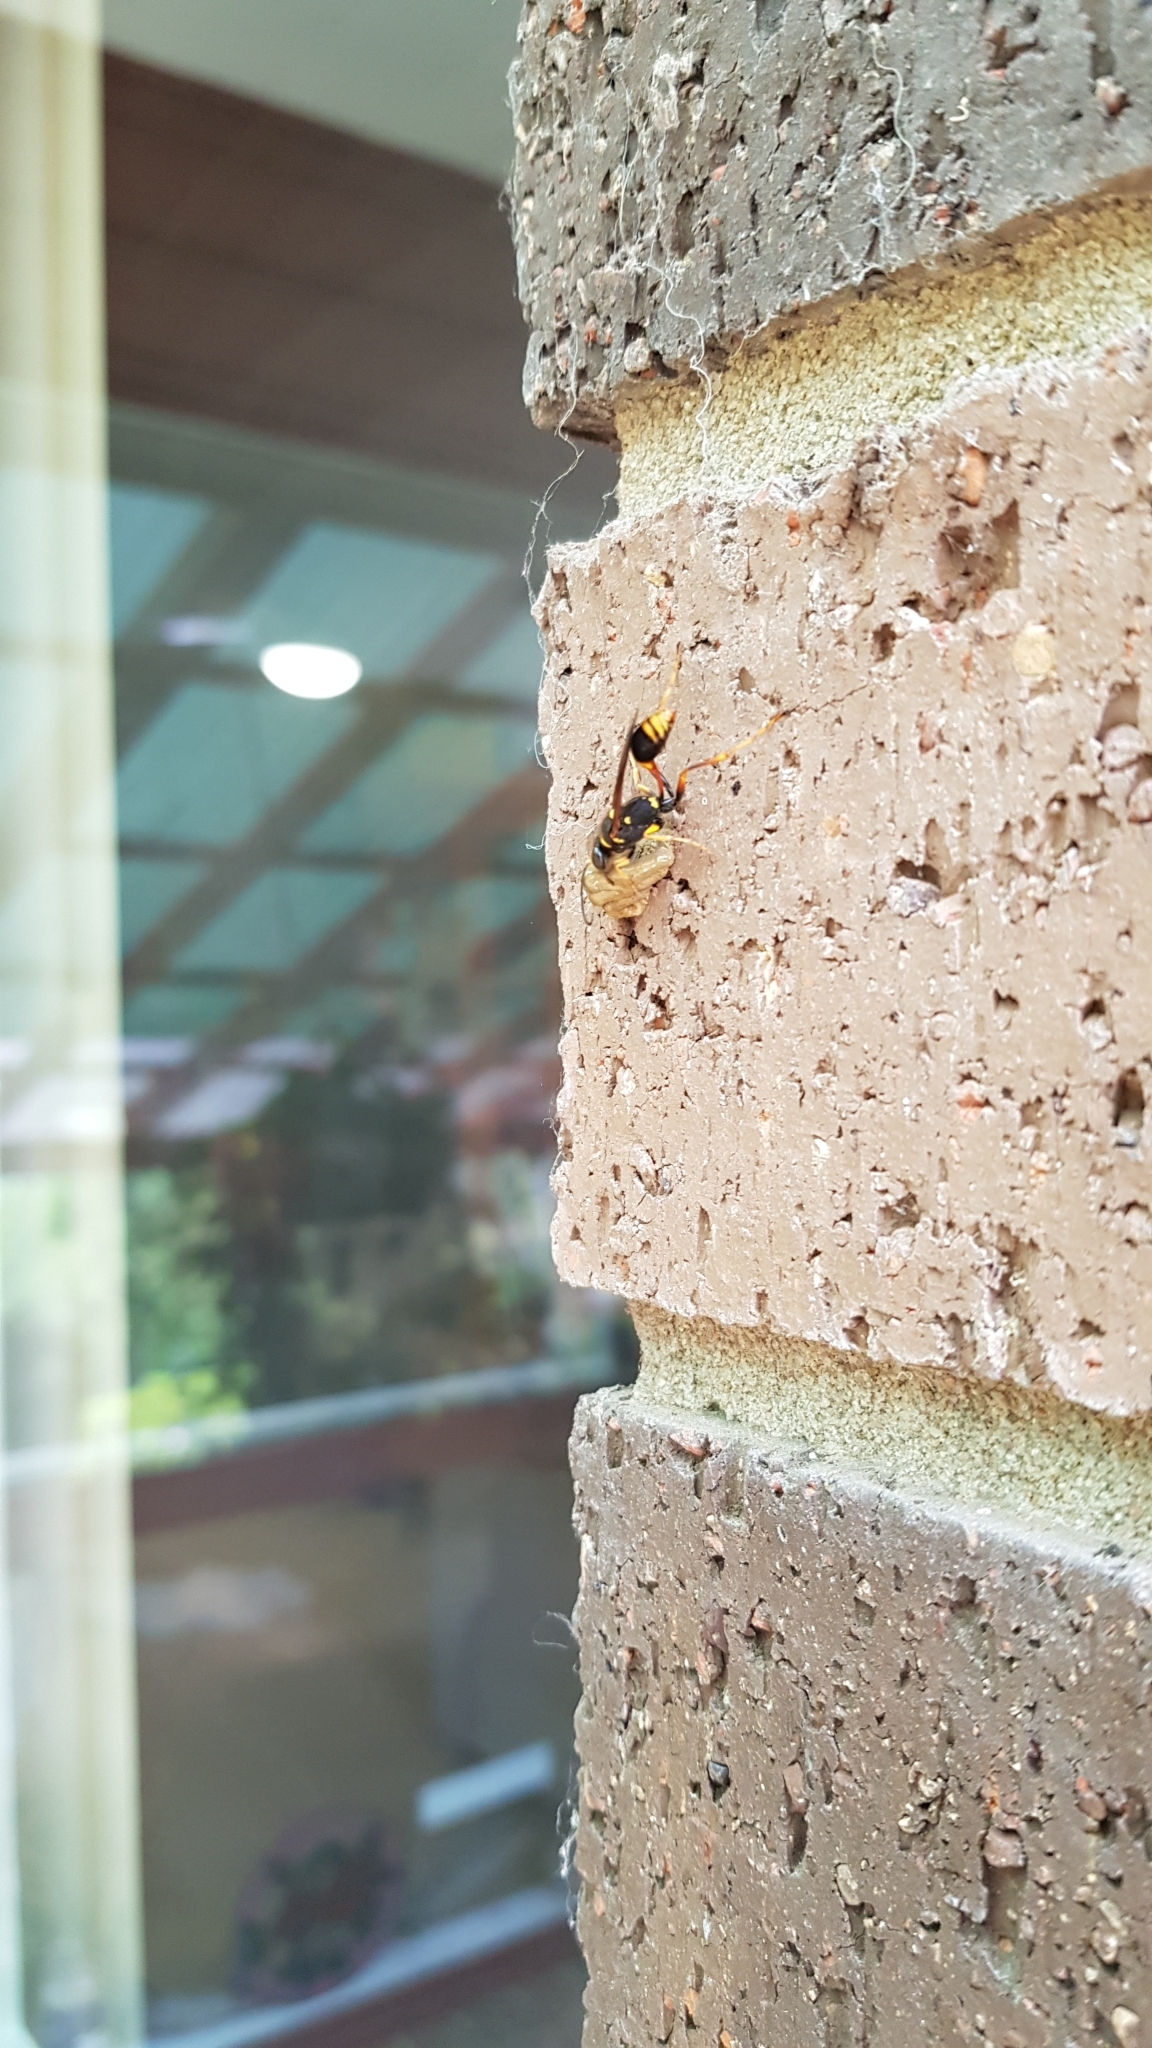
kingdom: Animalia
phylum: Arthropoda
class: Insecta
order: Hymenoptera
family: Sphecidae
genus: Sceliphron
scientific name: Sceliphron formosum
